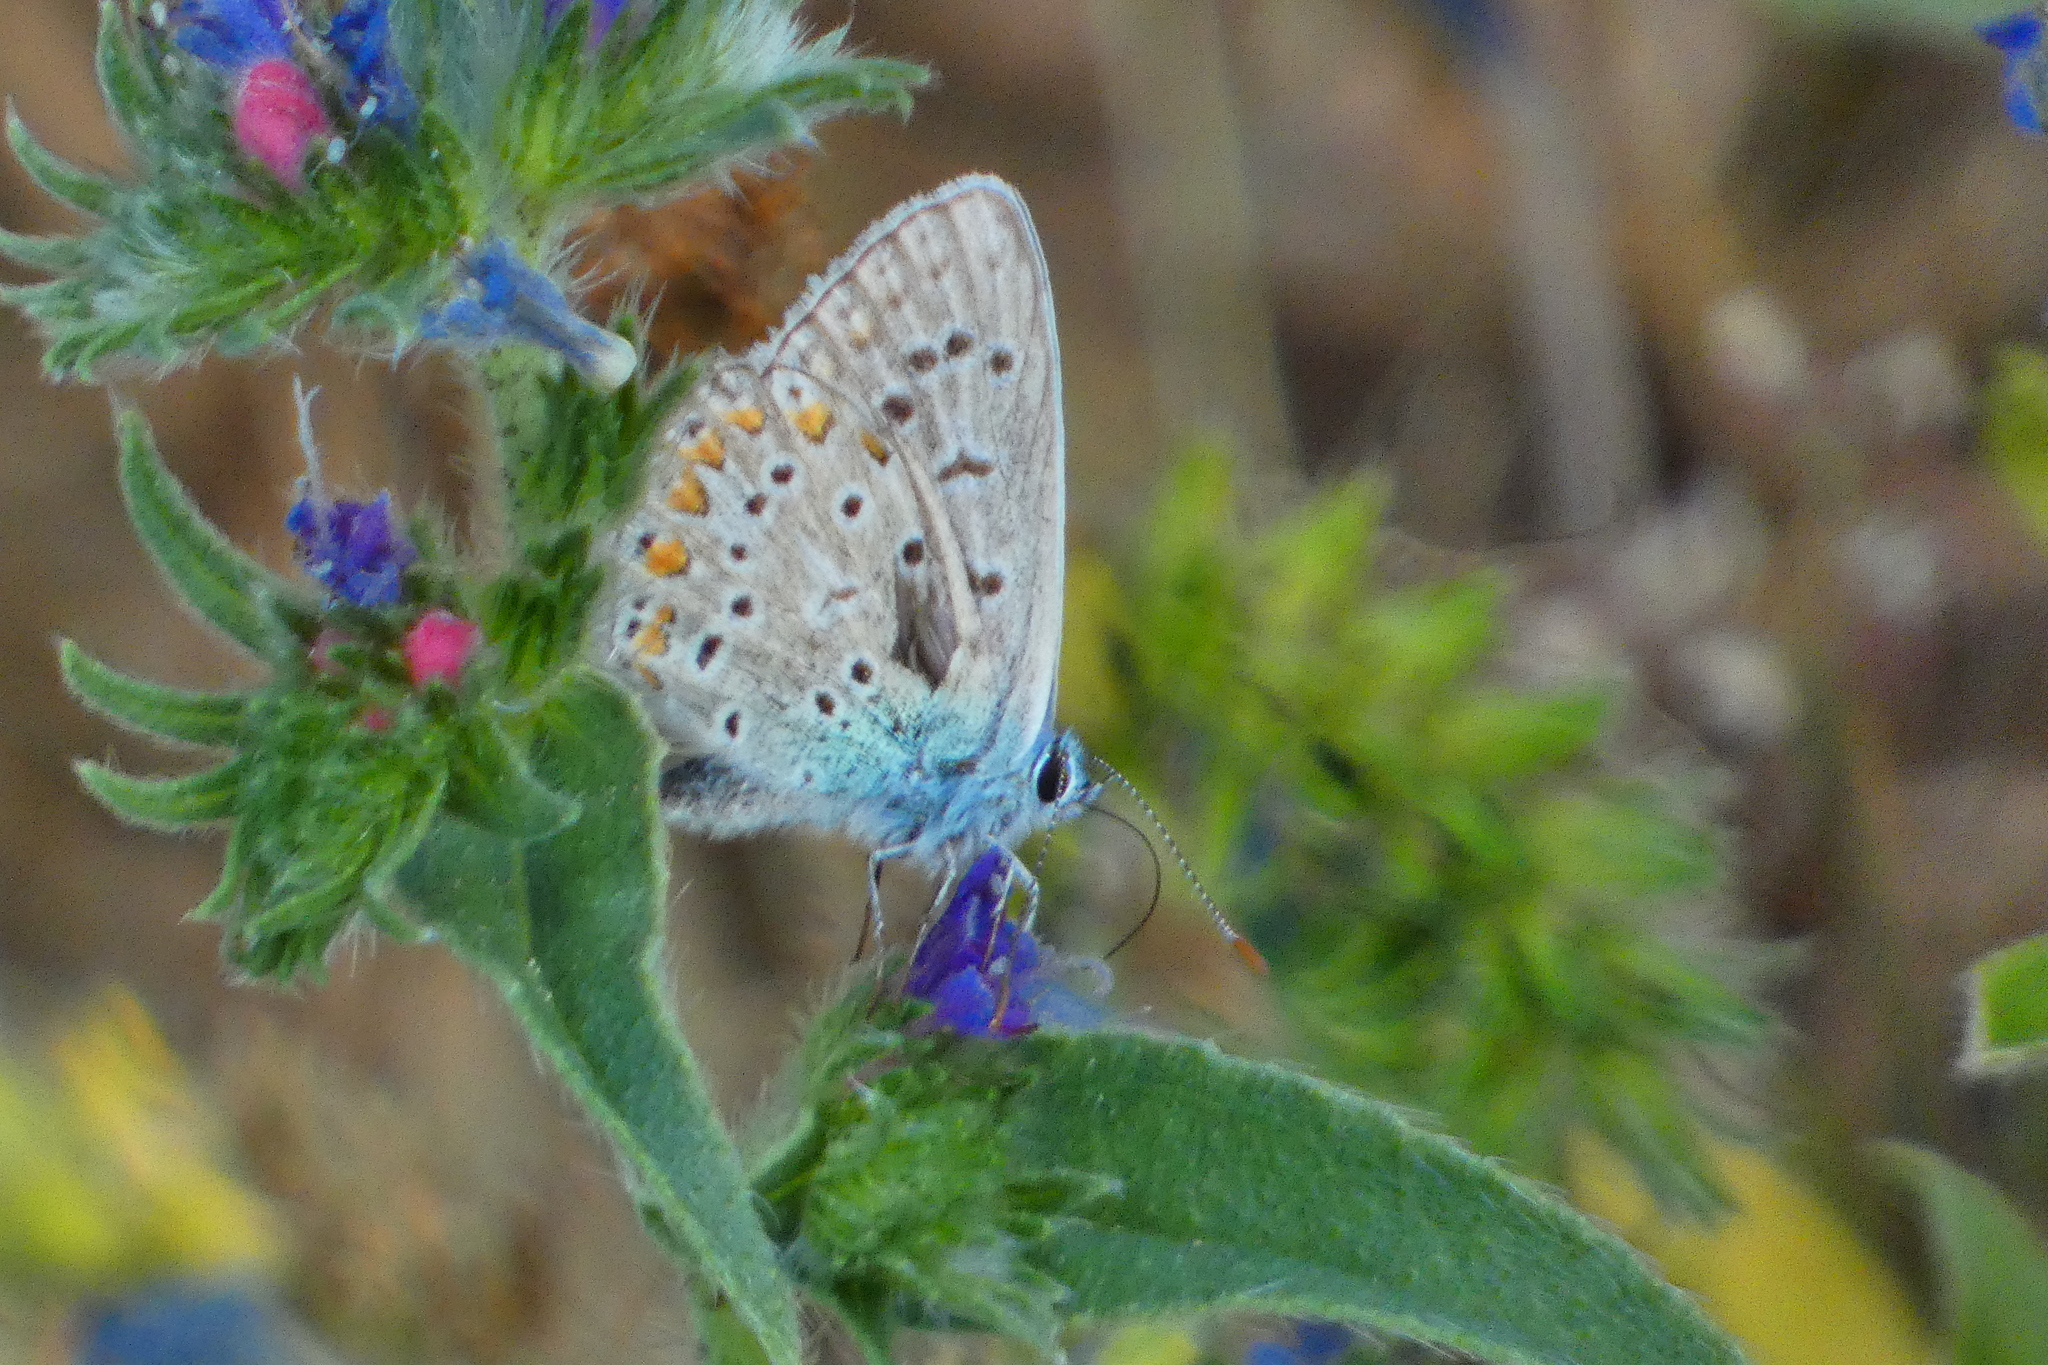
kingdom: Animalia
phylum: Arthropoda
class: Insecta
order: Lepidoptera
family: Lycaenidae
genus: Polyommatus
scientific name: Polyommatus icarus
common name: Common blue
